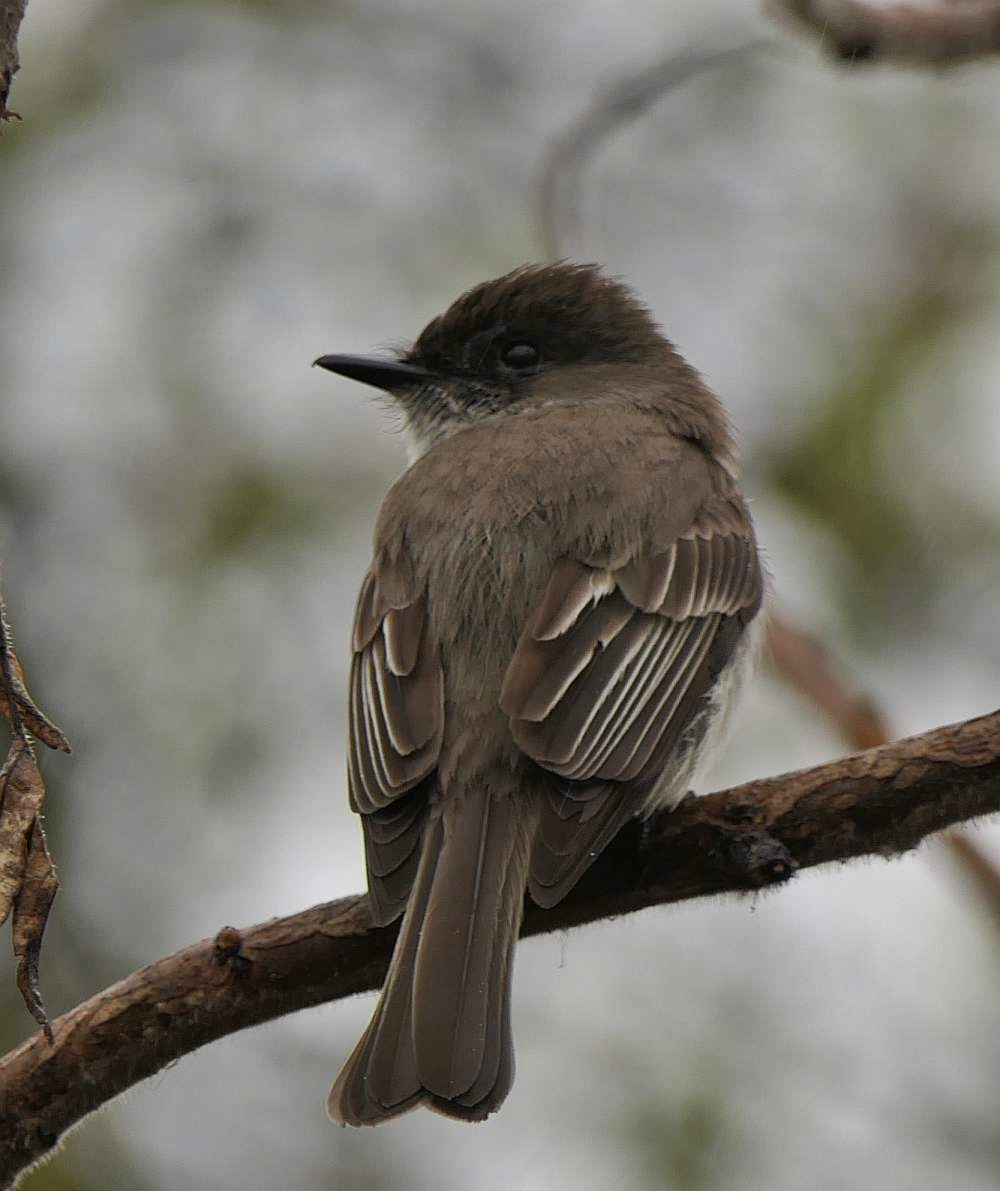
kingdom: Animalia
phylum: Chordata
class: Aves
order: Passeriformes
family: Tyrannidae
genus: Sayornis
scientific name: Sayornis phoebe
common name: Eastern phoebe
